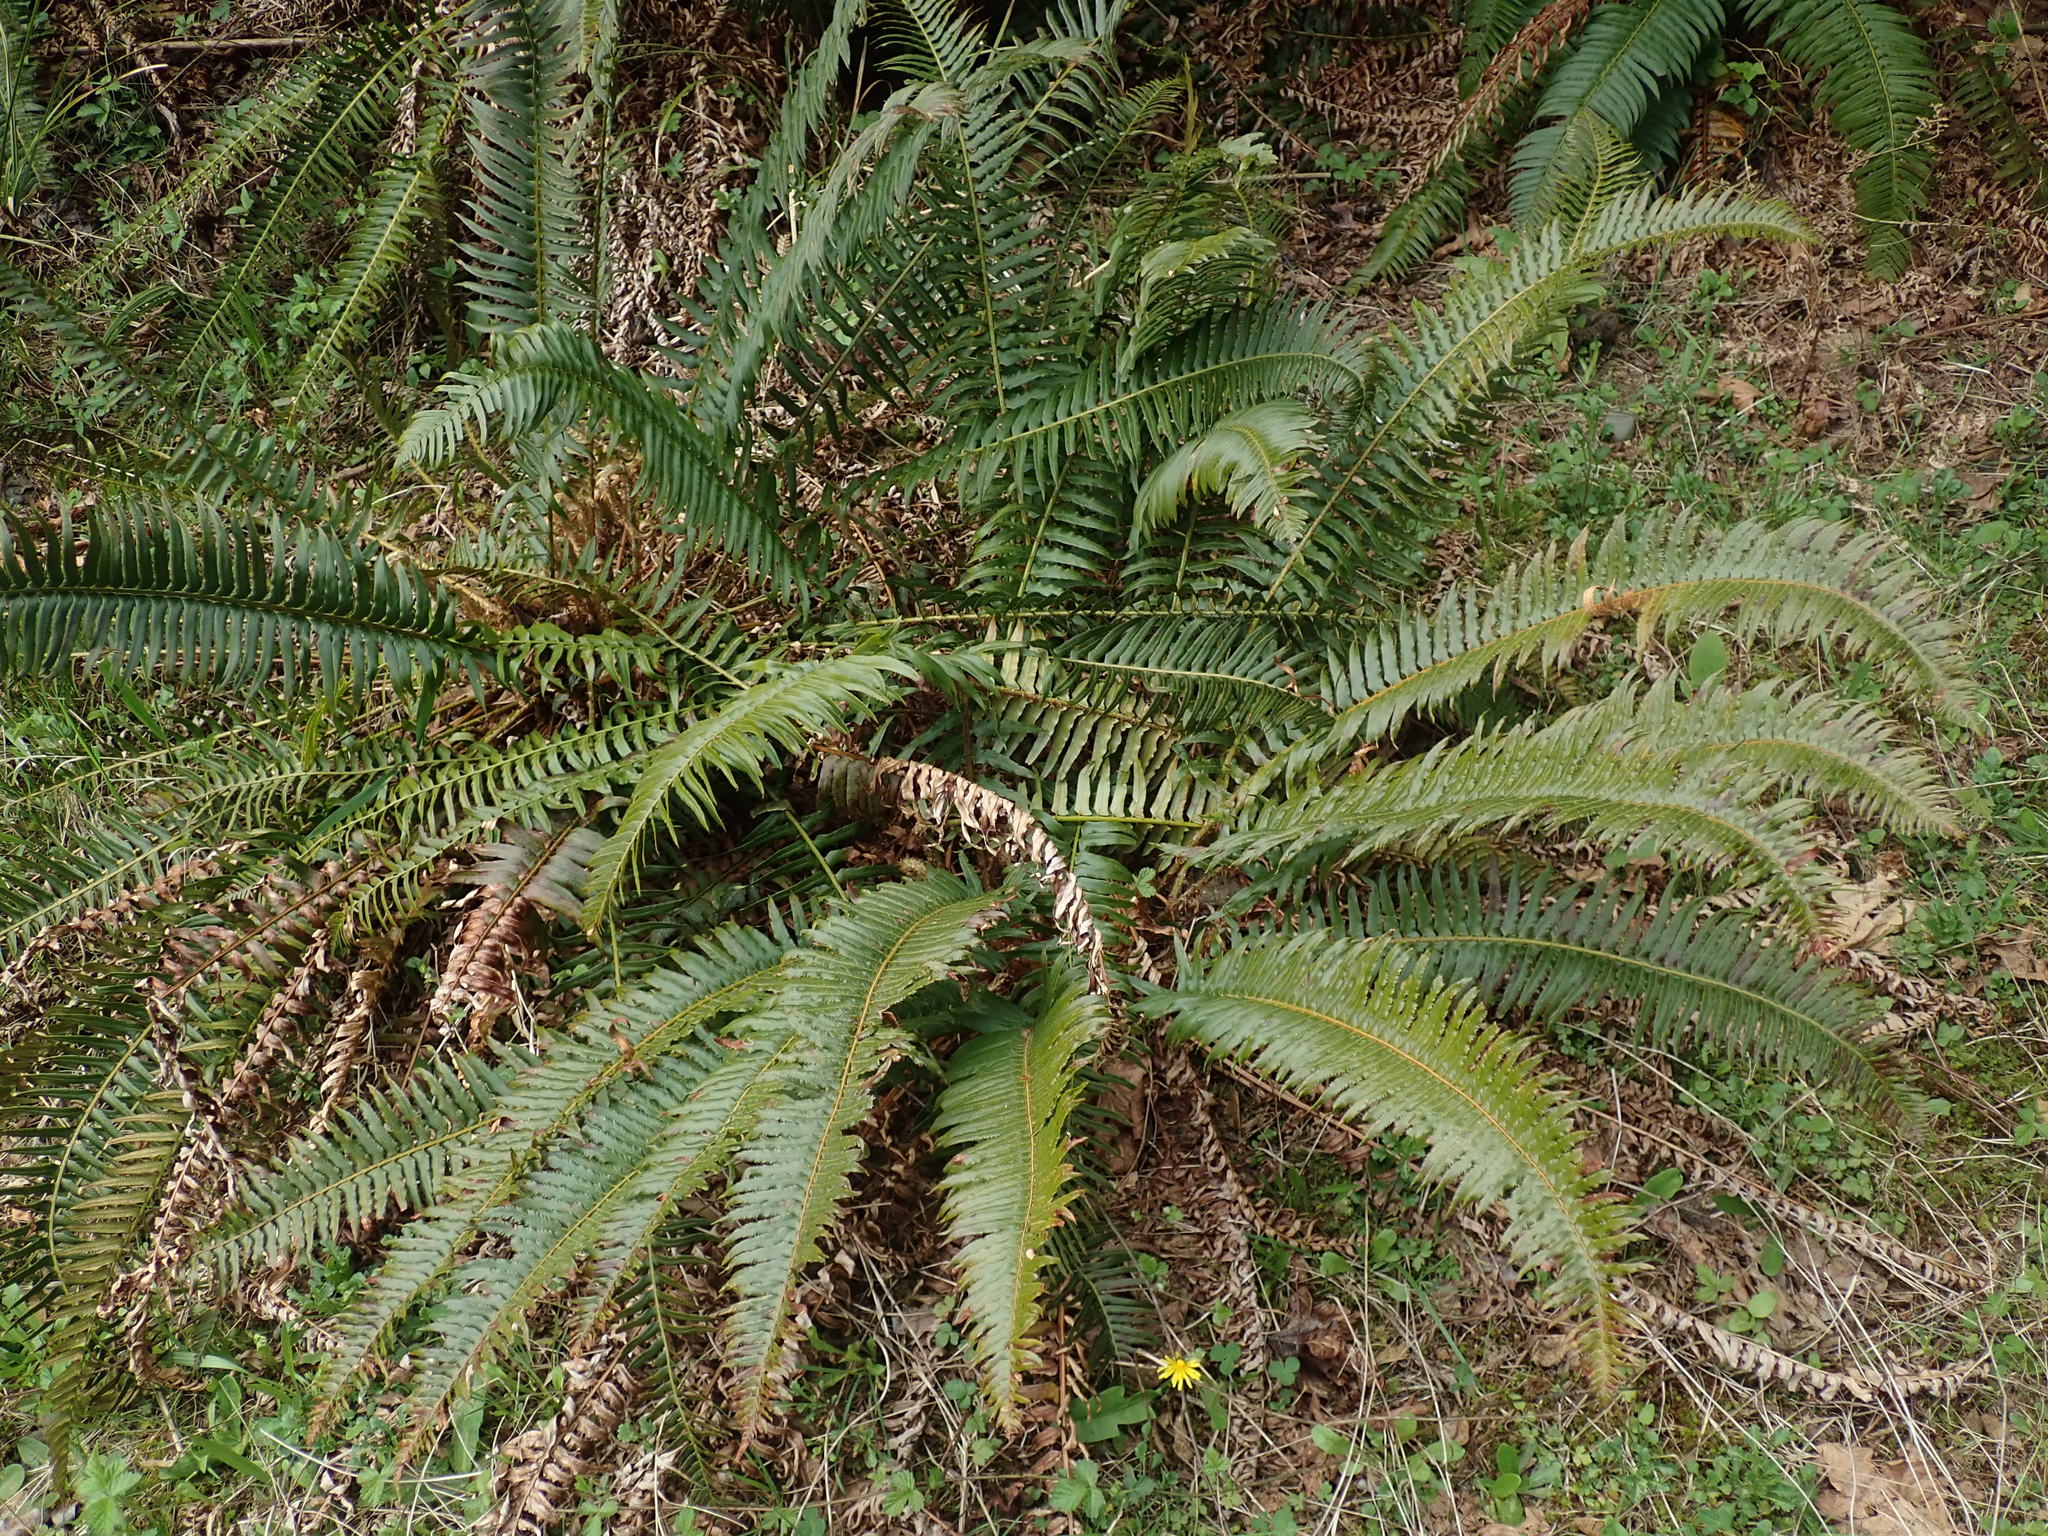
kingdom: Plantae
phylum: Tracheophyta
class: Polypodiopsida
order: Polypodiales
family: Dryopteridaceae
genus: Polystichum
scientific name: Polystichum munitum
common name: Western sword-fern
